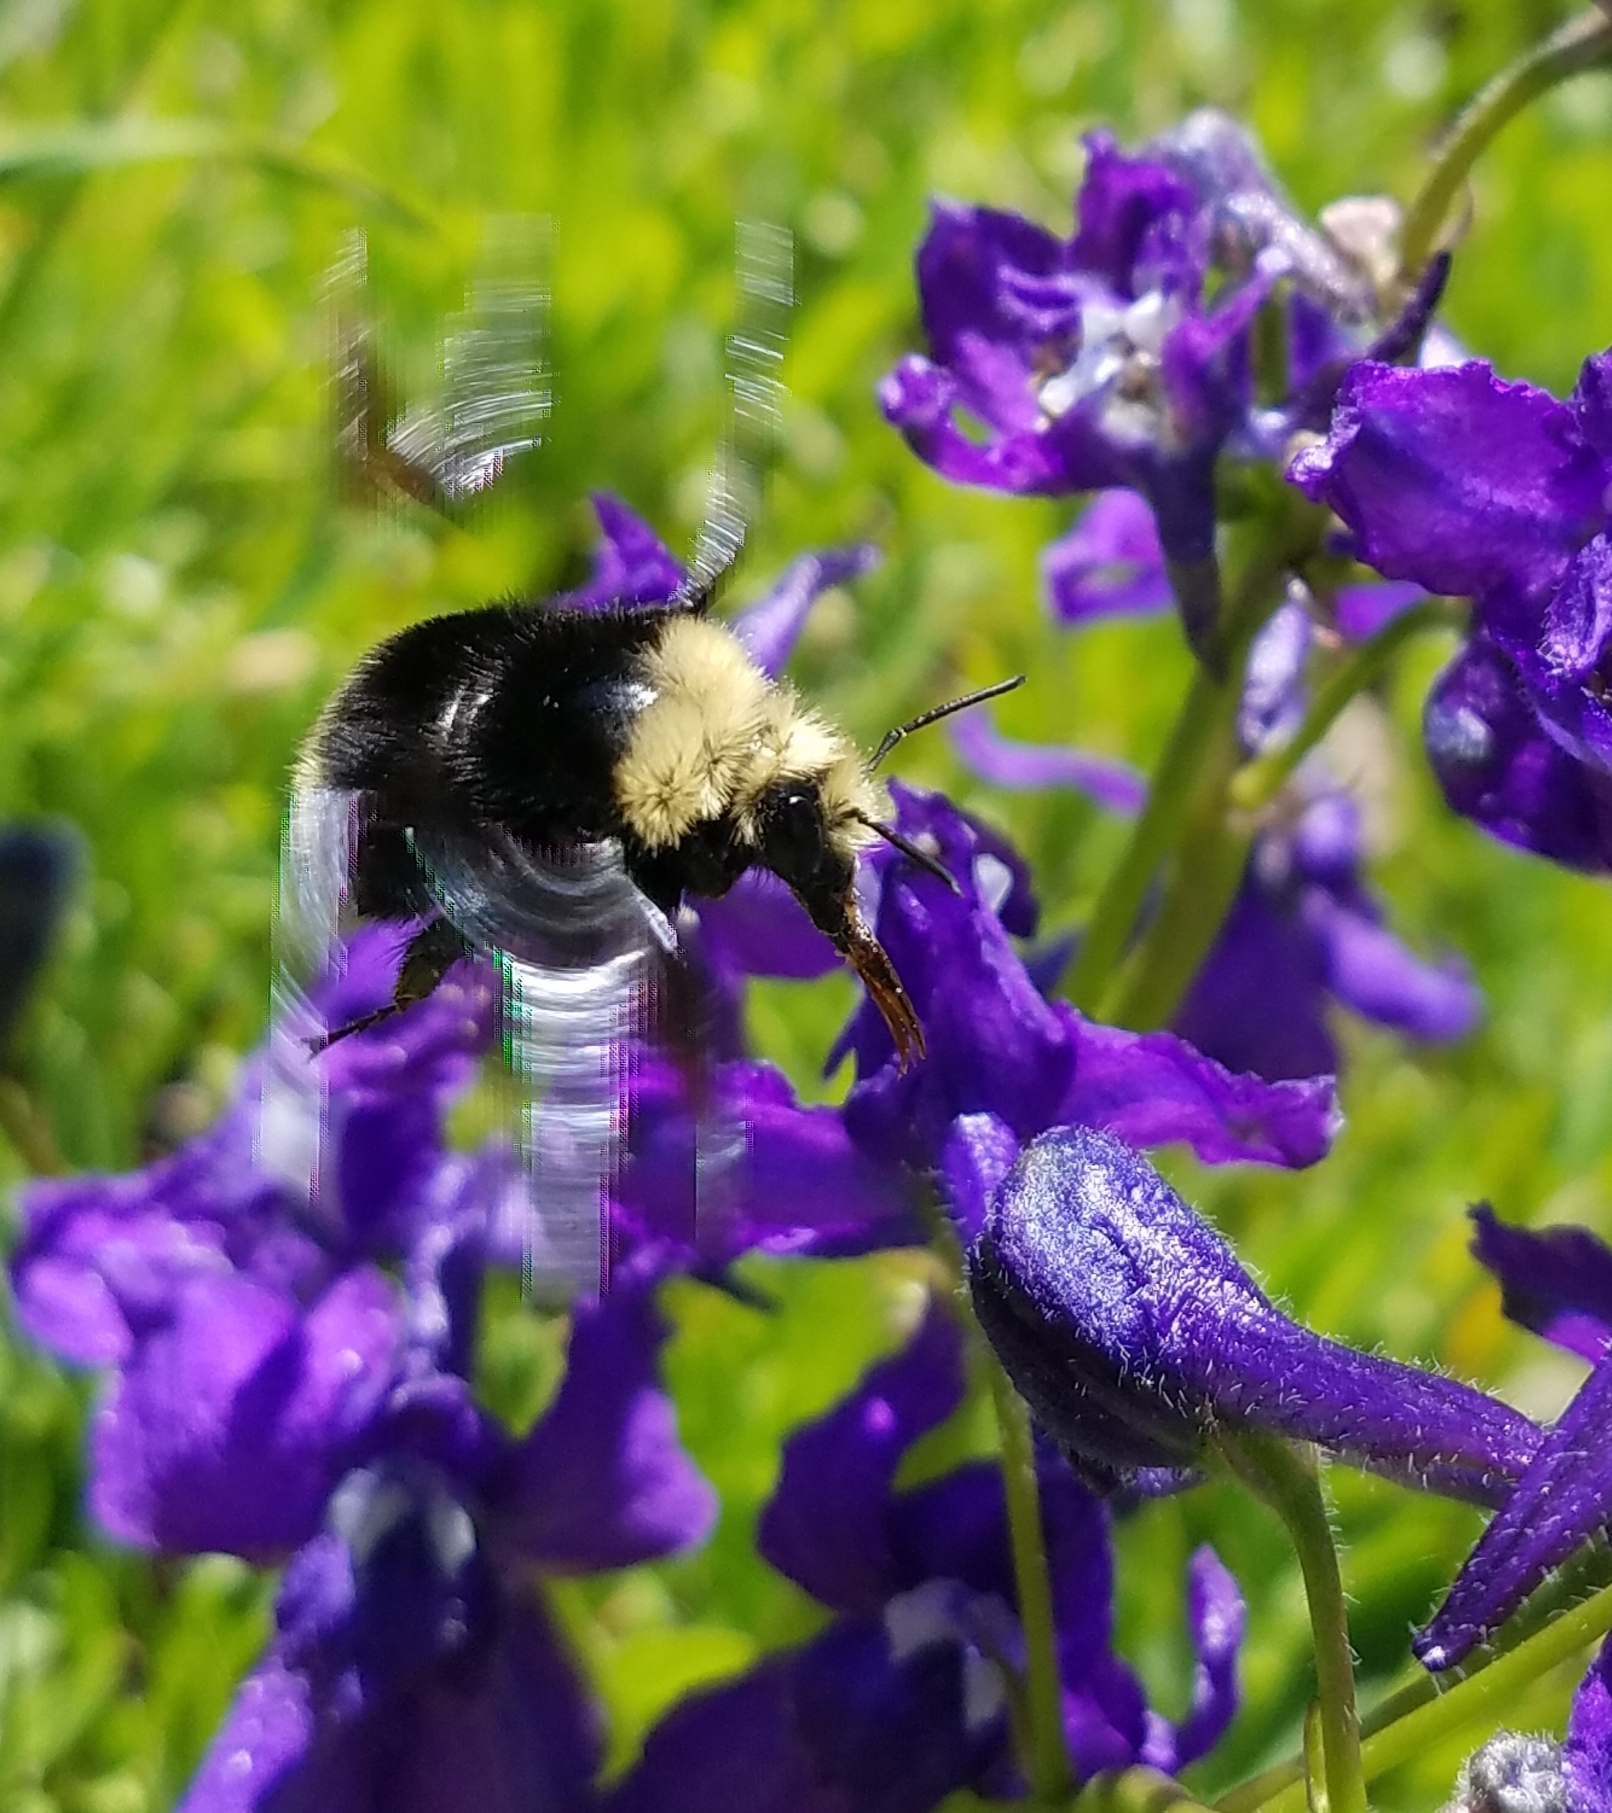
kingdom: Animalia
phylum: Arthropoda
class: Insecta
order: Hymenoptera
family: Apidae
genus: Bombus
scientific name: Bombus vosnesenskii
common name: Vosnesensky bumble bee
